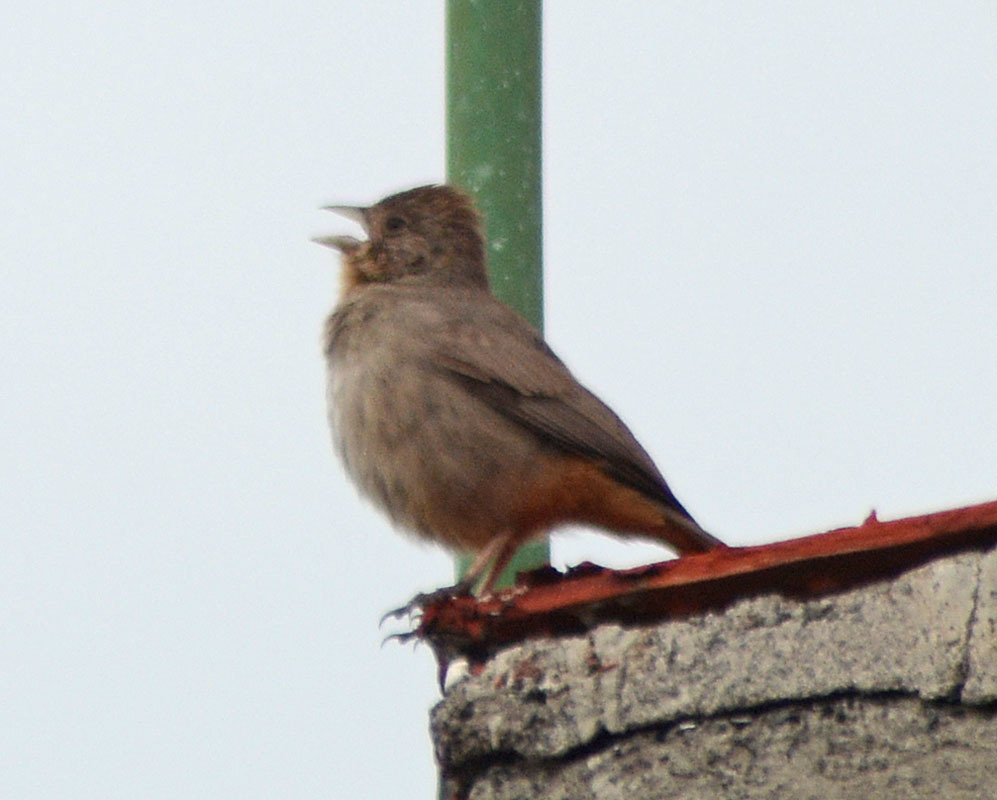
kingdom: Animalia
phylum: Chordata
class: Aves
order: Passeriformes
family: Passerellidae
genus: Melozone
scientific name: Melozone fusca
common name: Canyon towhee
